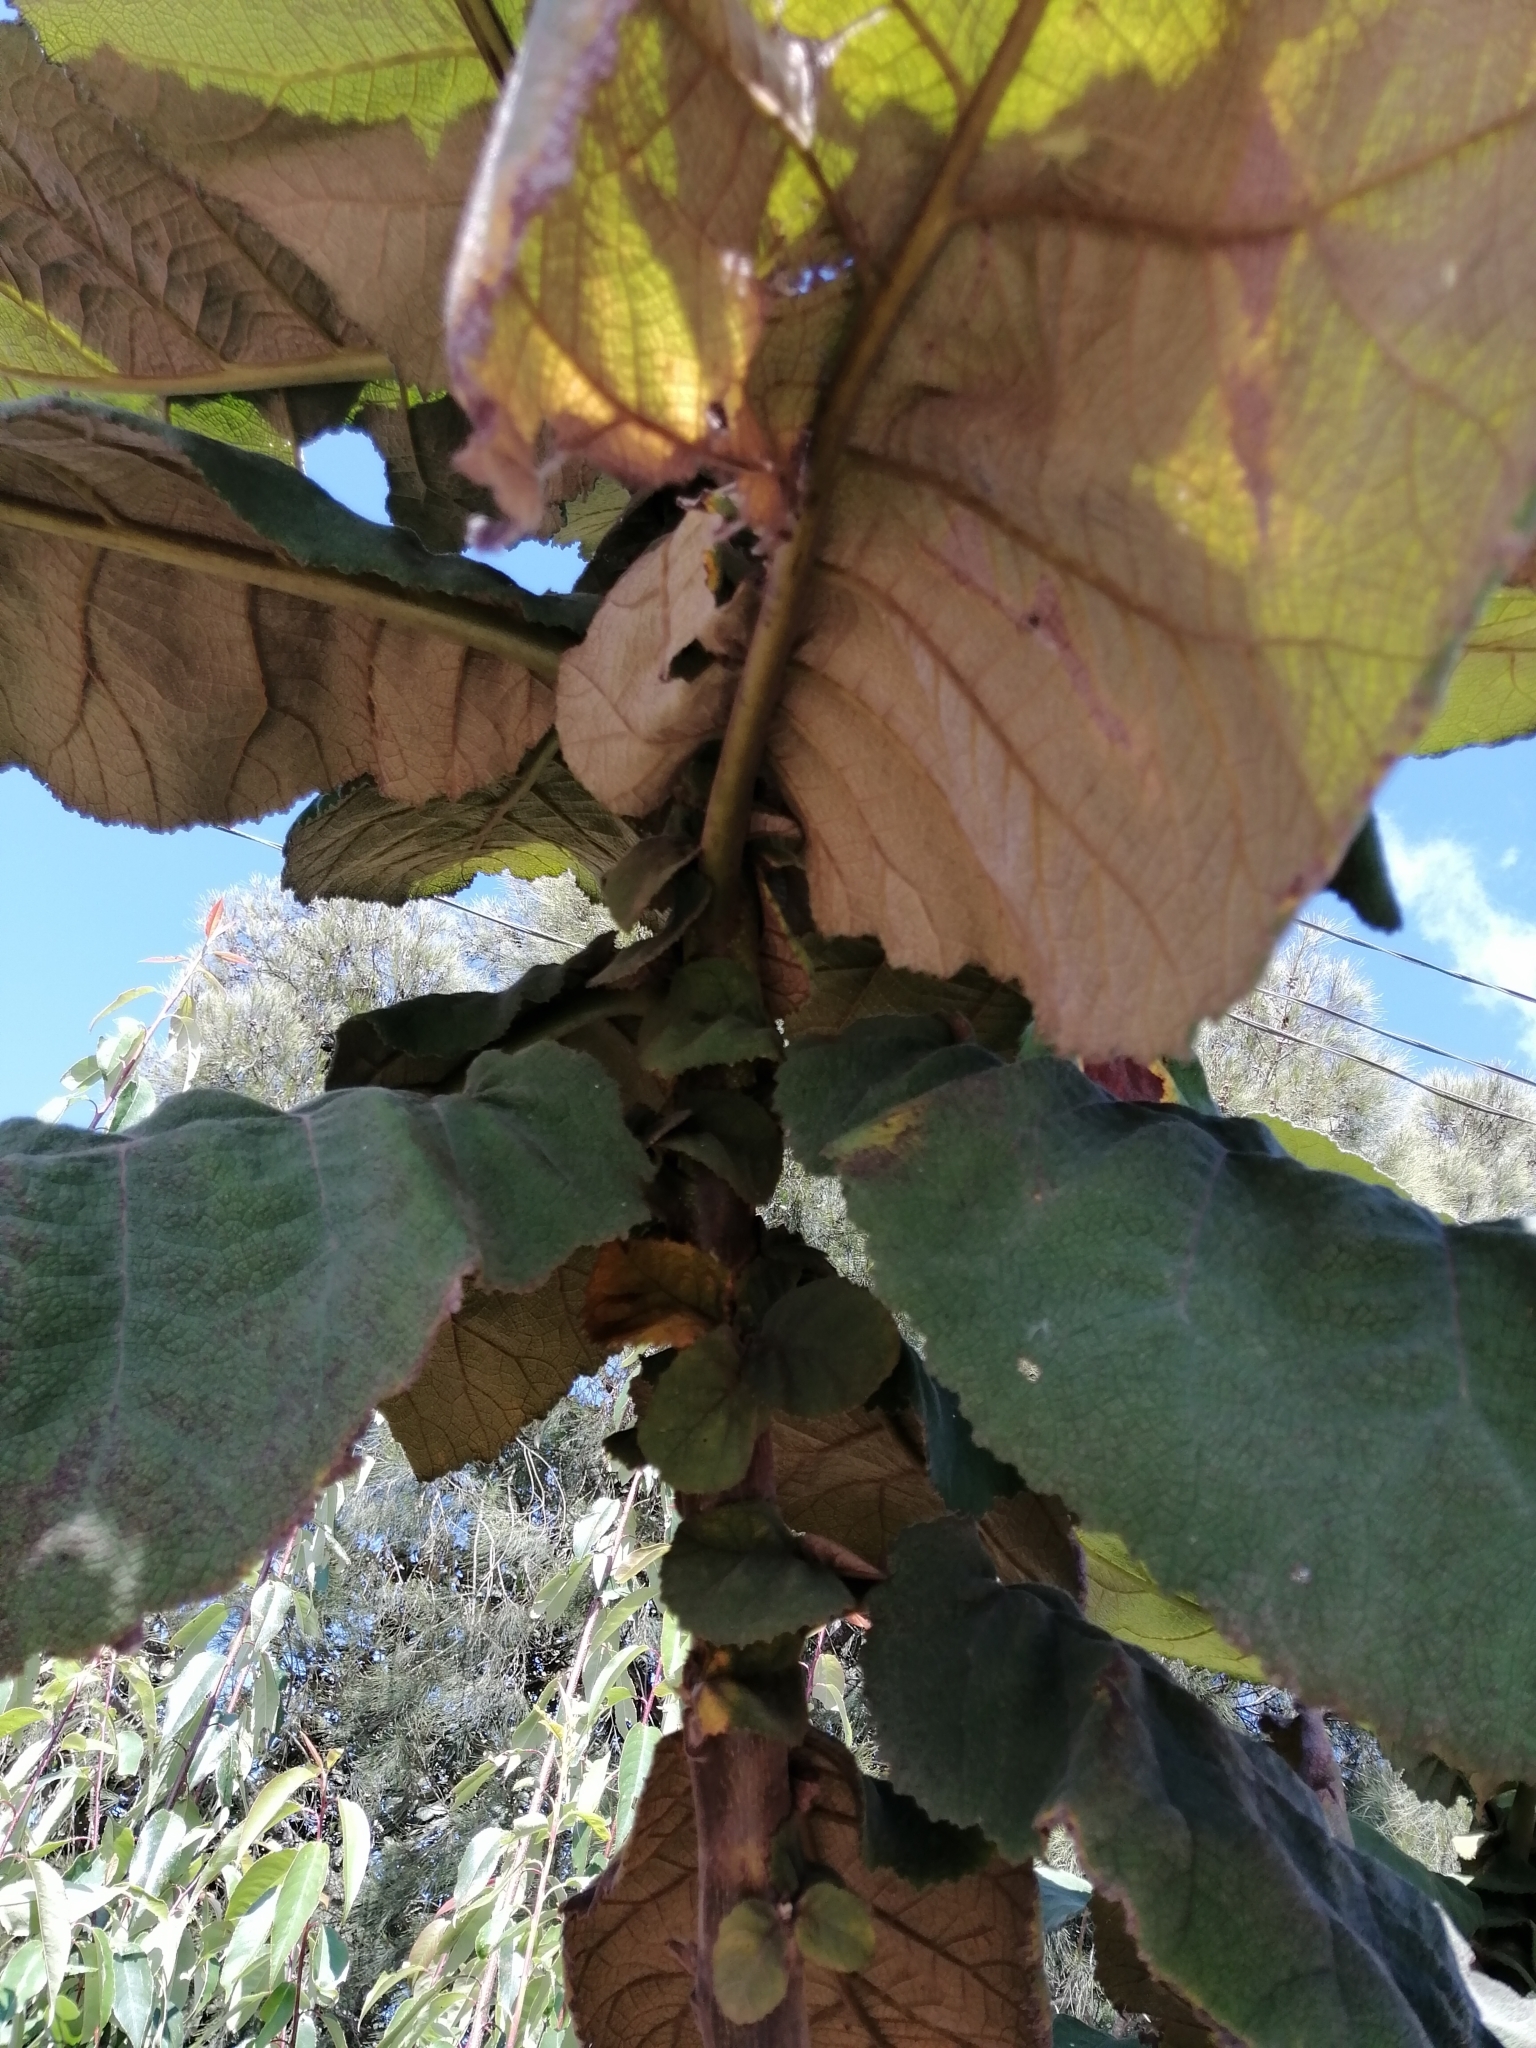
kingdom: Plantae
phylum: Tracheophyta
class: Magnoliopsida
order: Boraginales
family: Namaceae
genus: Wigandia
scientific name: Wigandia urens
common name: Caracus wigandia
